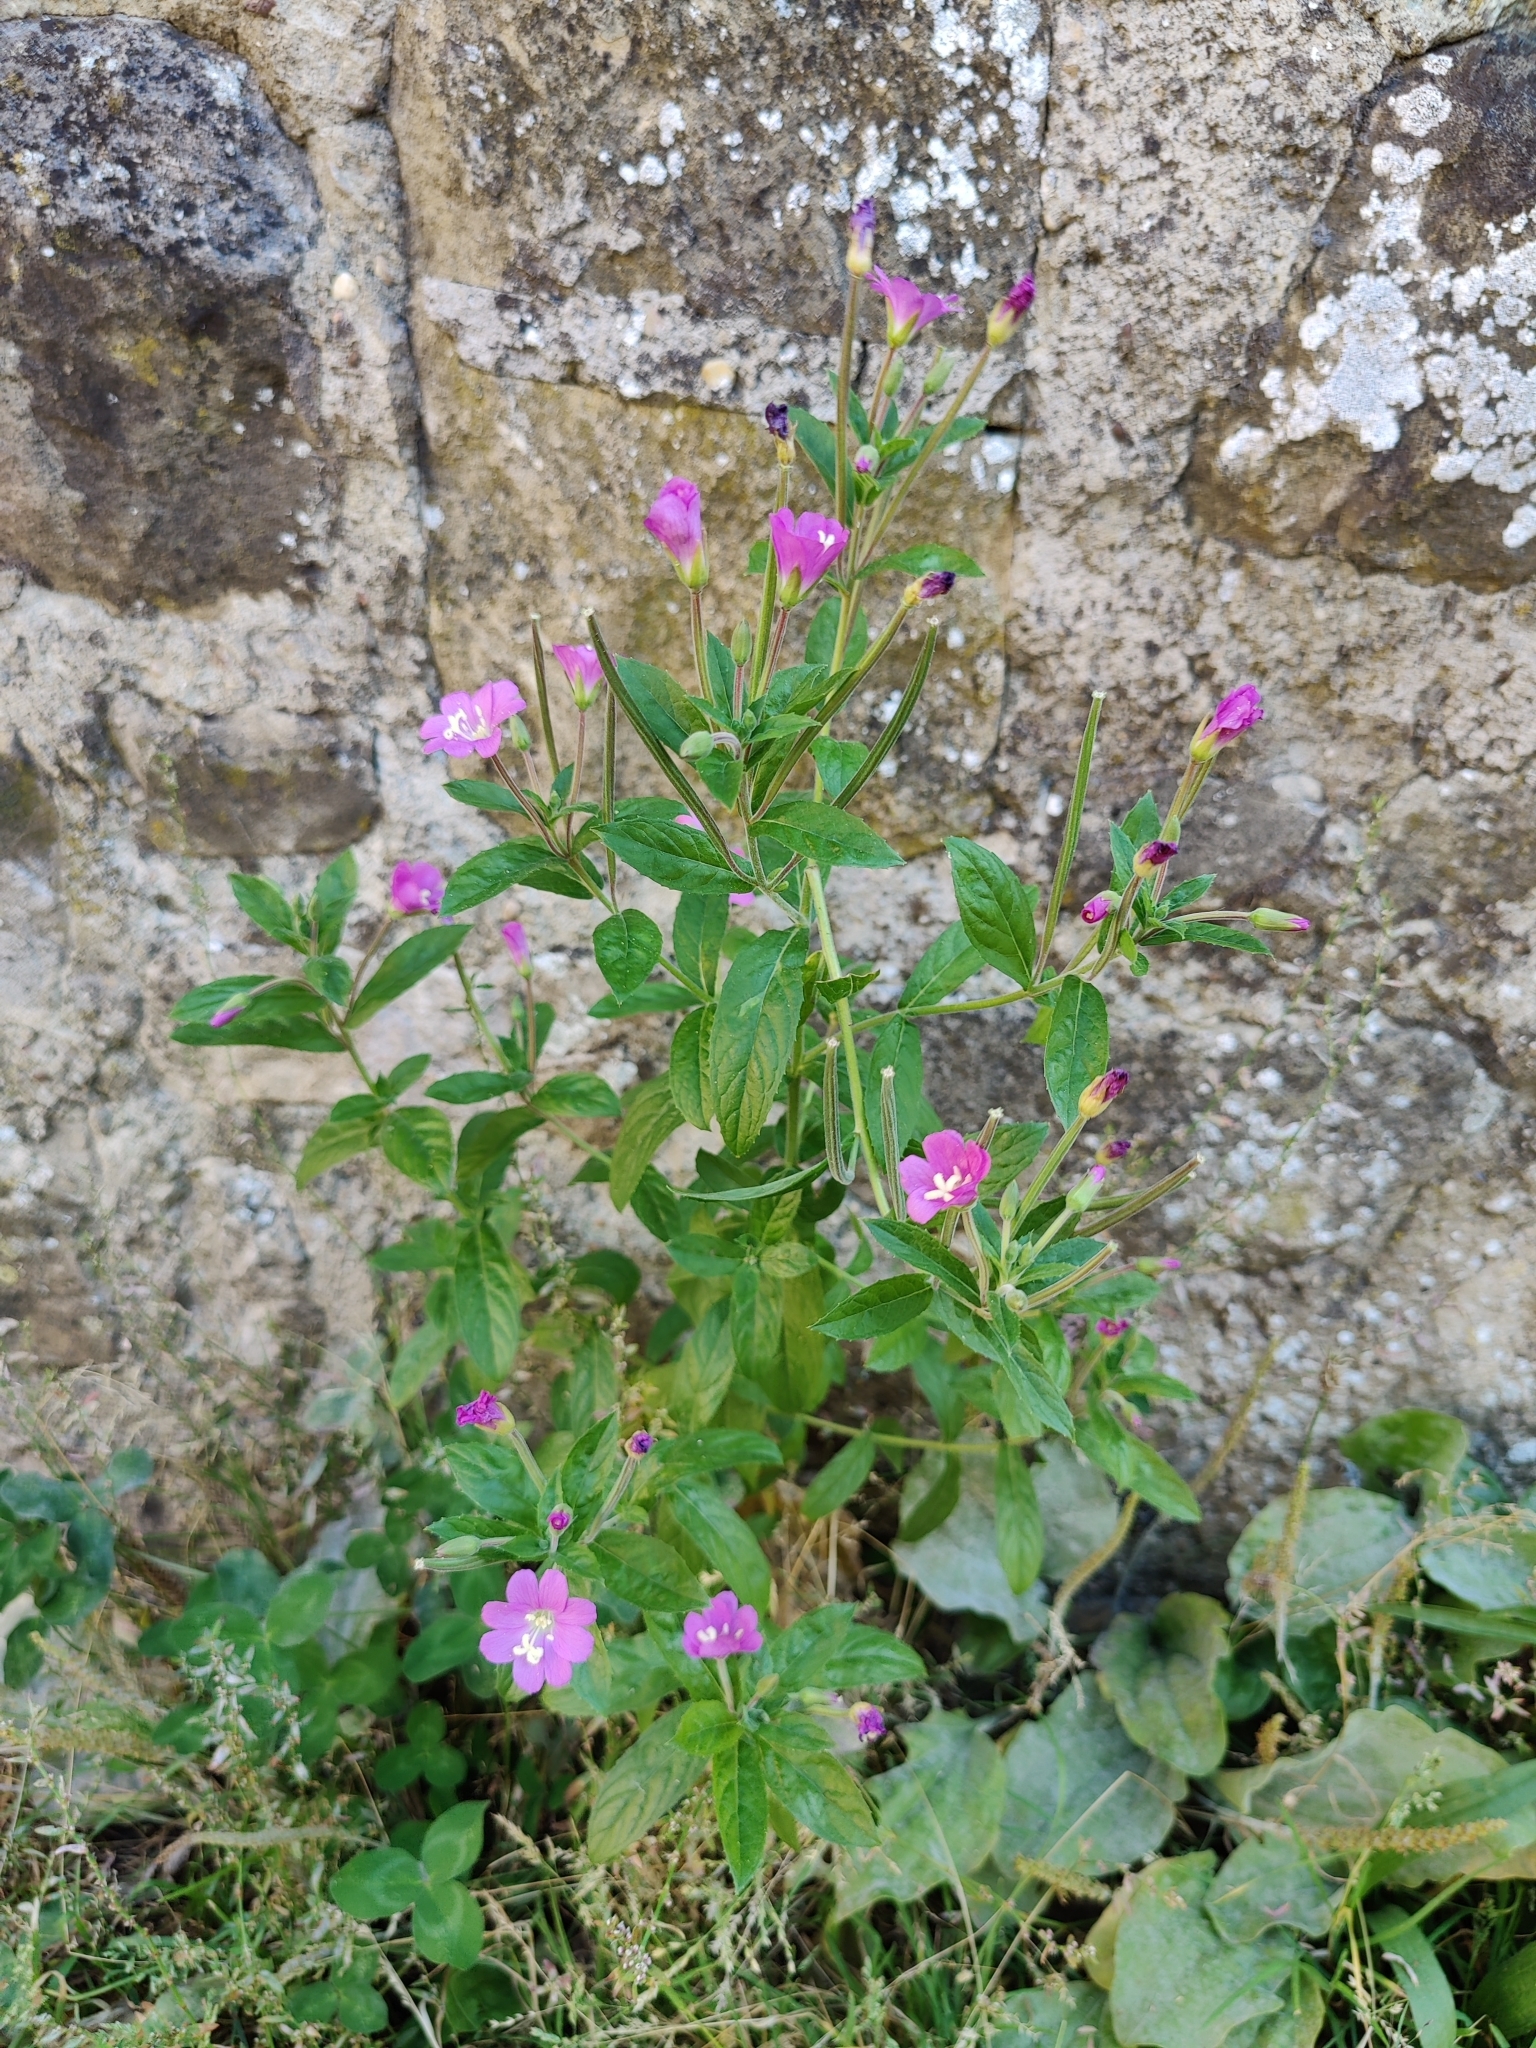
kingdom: Plantae
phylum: Tracheophyta
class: Magnoliopsida
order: Myrtales
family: Onagraceae
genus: Epilobium
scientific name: Epilobium hirsutum
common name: Great willowherb
